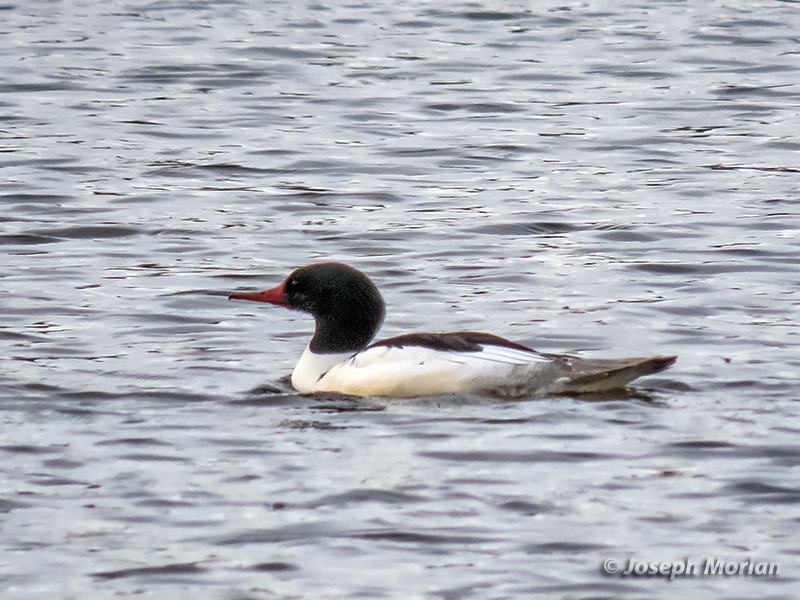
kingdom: Animalia
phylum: Chordata
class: Aves
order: Anseriformes
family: Anatidae
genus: Mergus
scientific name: Mergus merganser
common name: Common merganser
